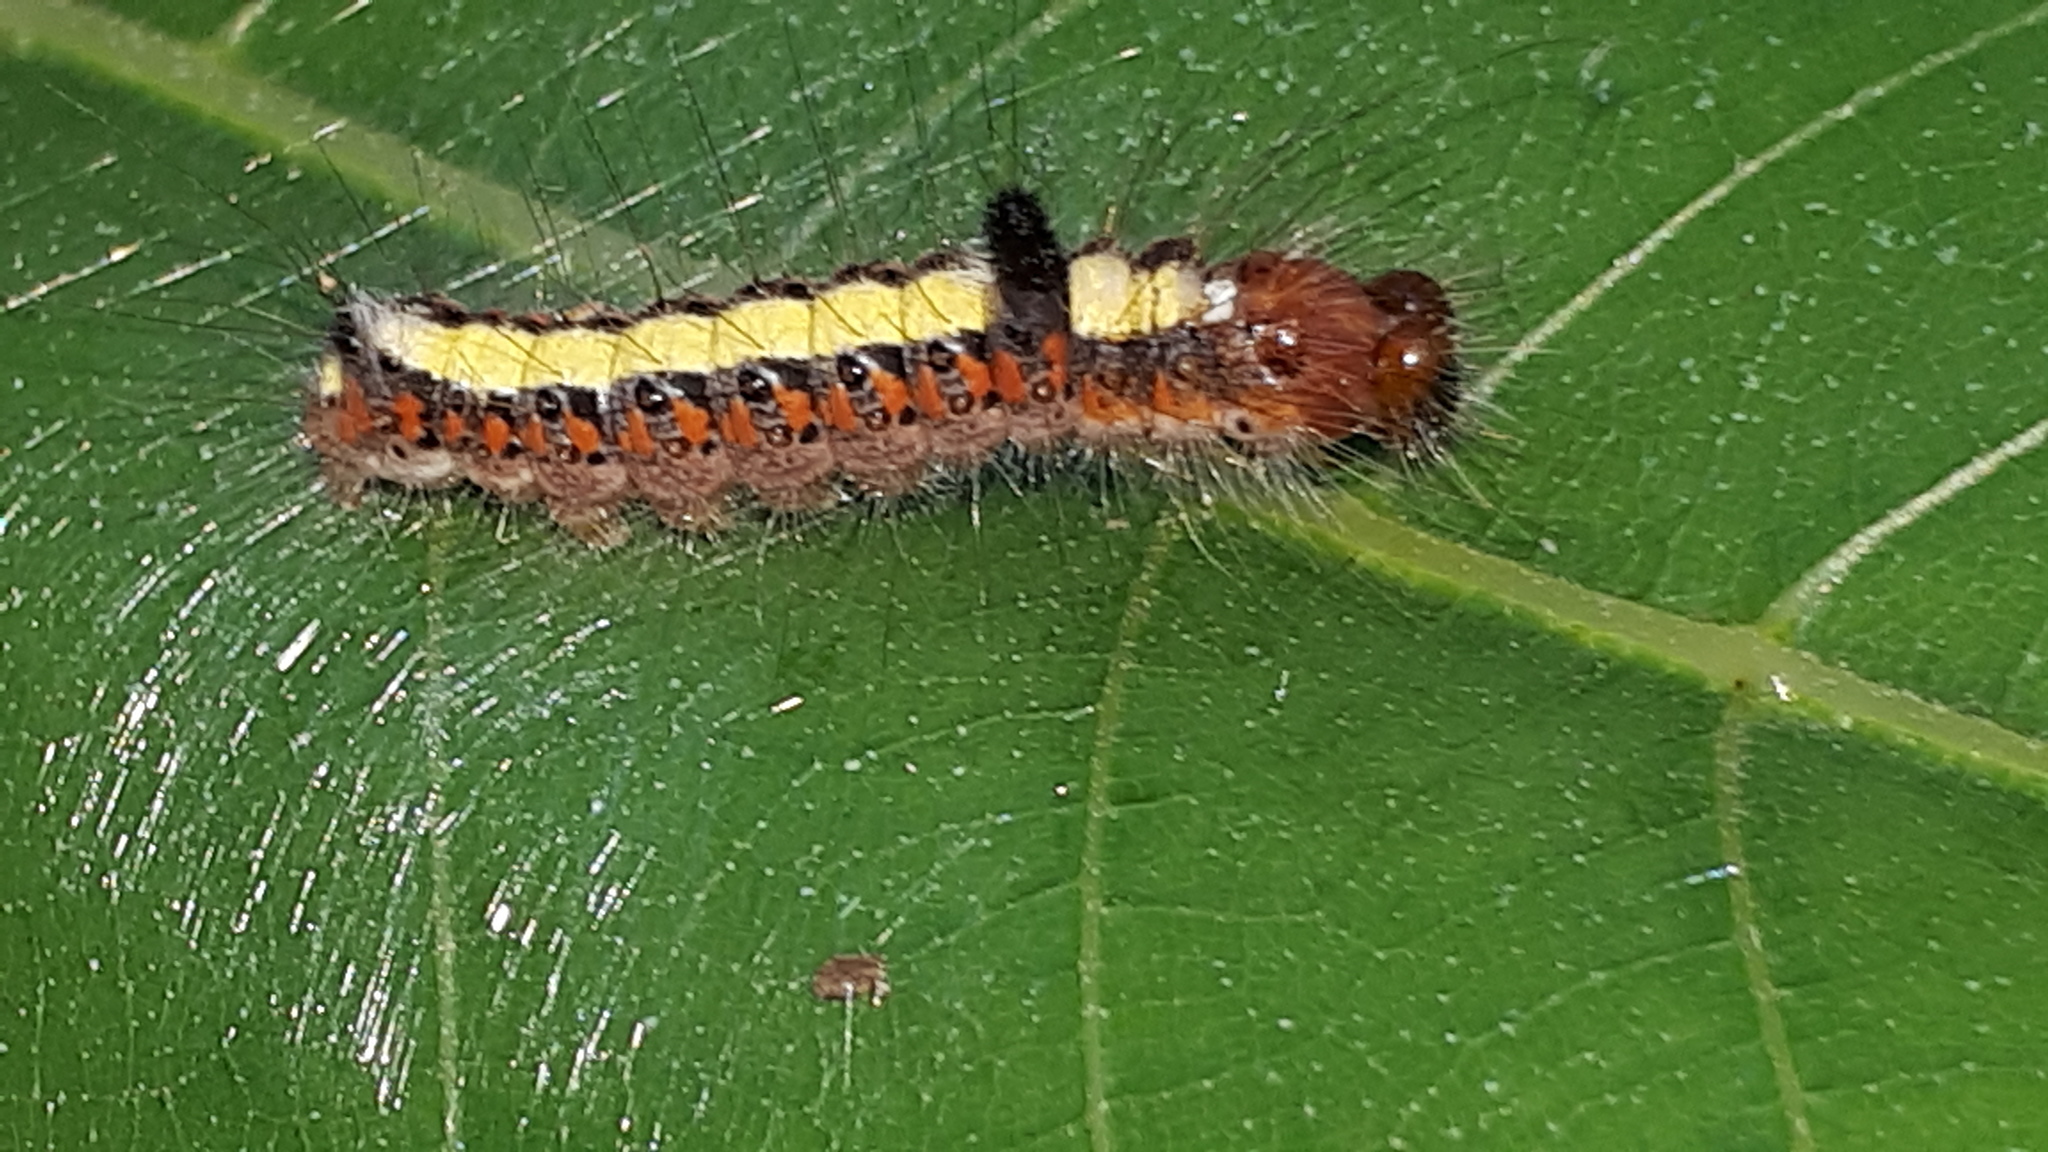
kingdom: Animalia
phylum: Arthropoda
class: Insecta
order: Lepidoptera
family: Noctuidae
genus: Acronicta
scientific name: Acronicta psi
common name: Grey dagger
